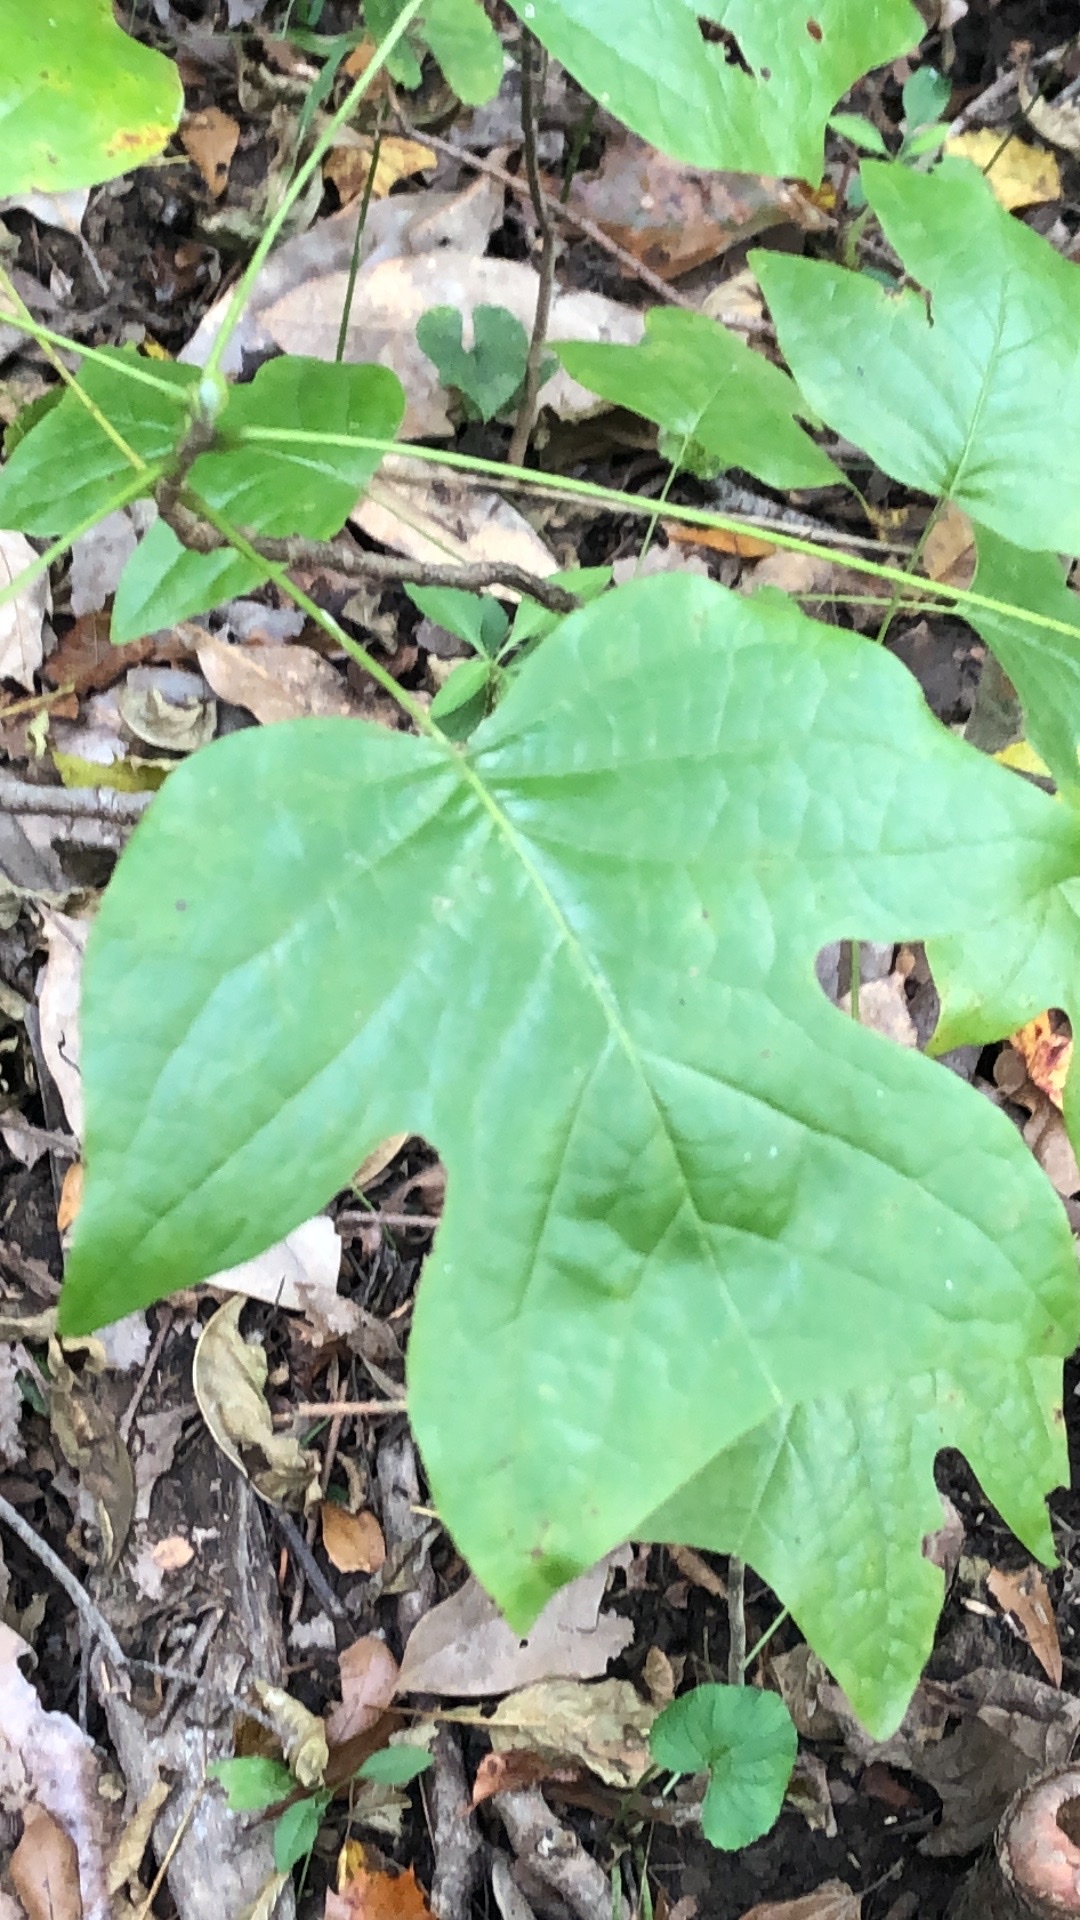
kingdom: Plantae
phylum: Tracheophyta
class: Magnoliopsida
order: Magnoliales
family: Magnoliaceae
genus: Liriodendron
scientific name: Liriodendron tulipifera
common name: Tulip tree
